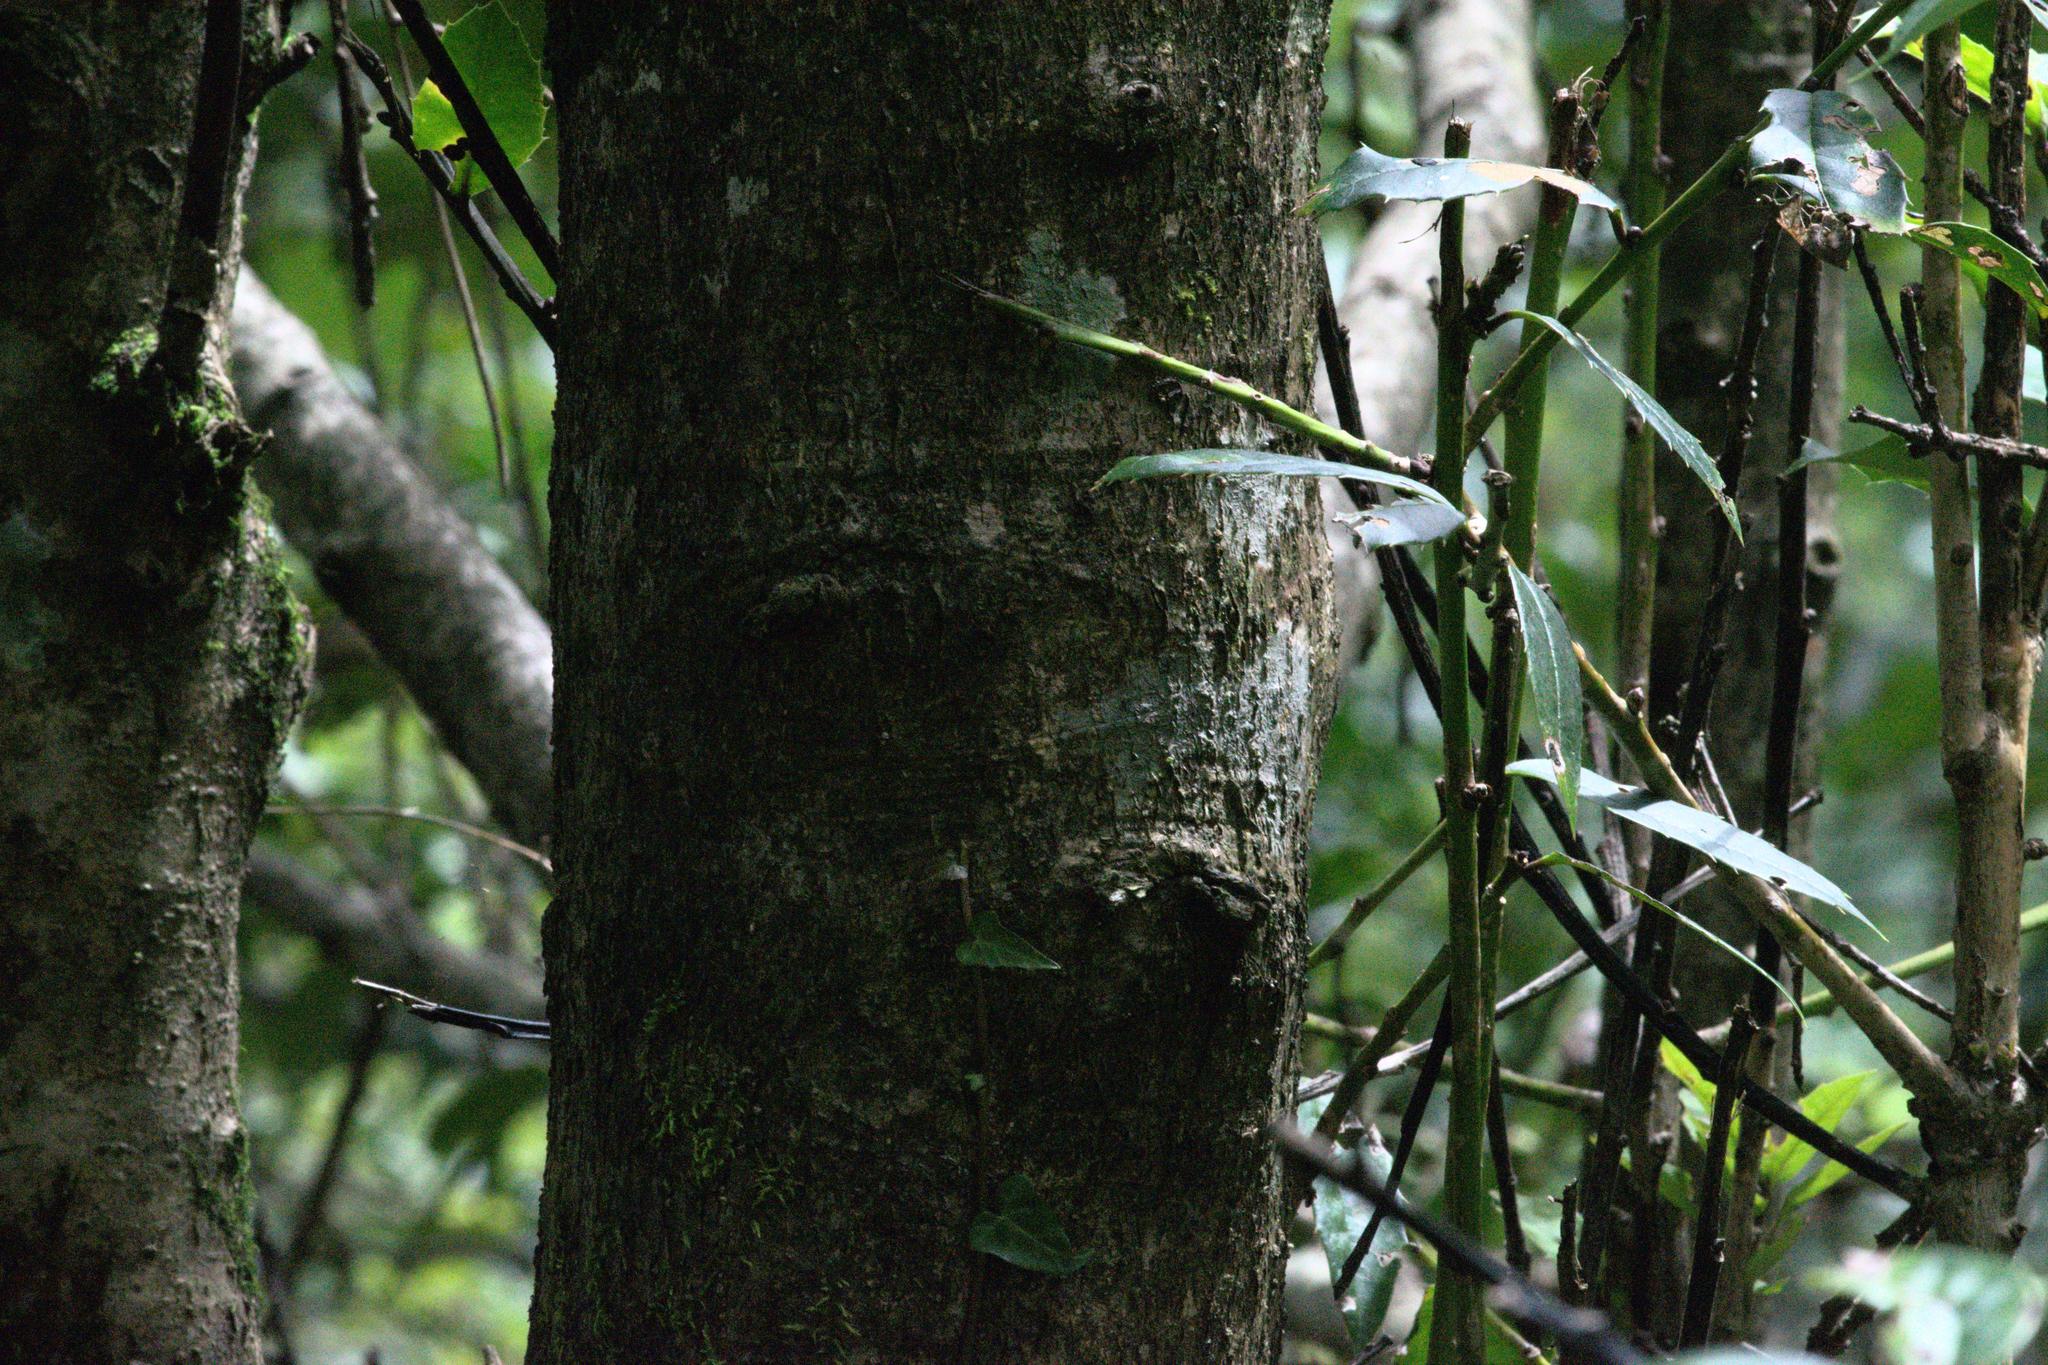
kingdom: Plantae
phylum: Tracheophyta
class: Magnoliopsida
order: Aquifoliales
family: Aquifoliaceae
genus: Ilex
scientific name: Ilex dipyrena
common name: Himalayan holly
